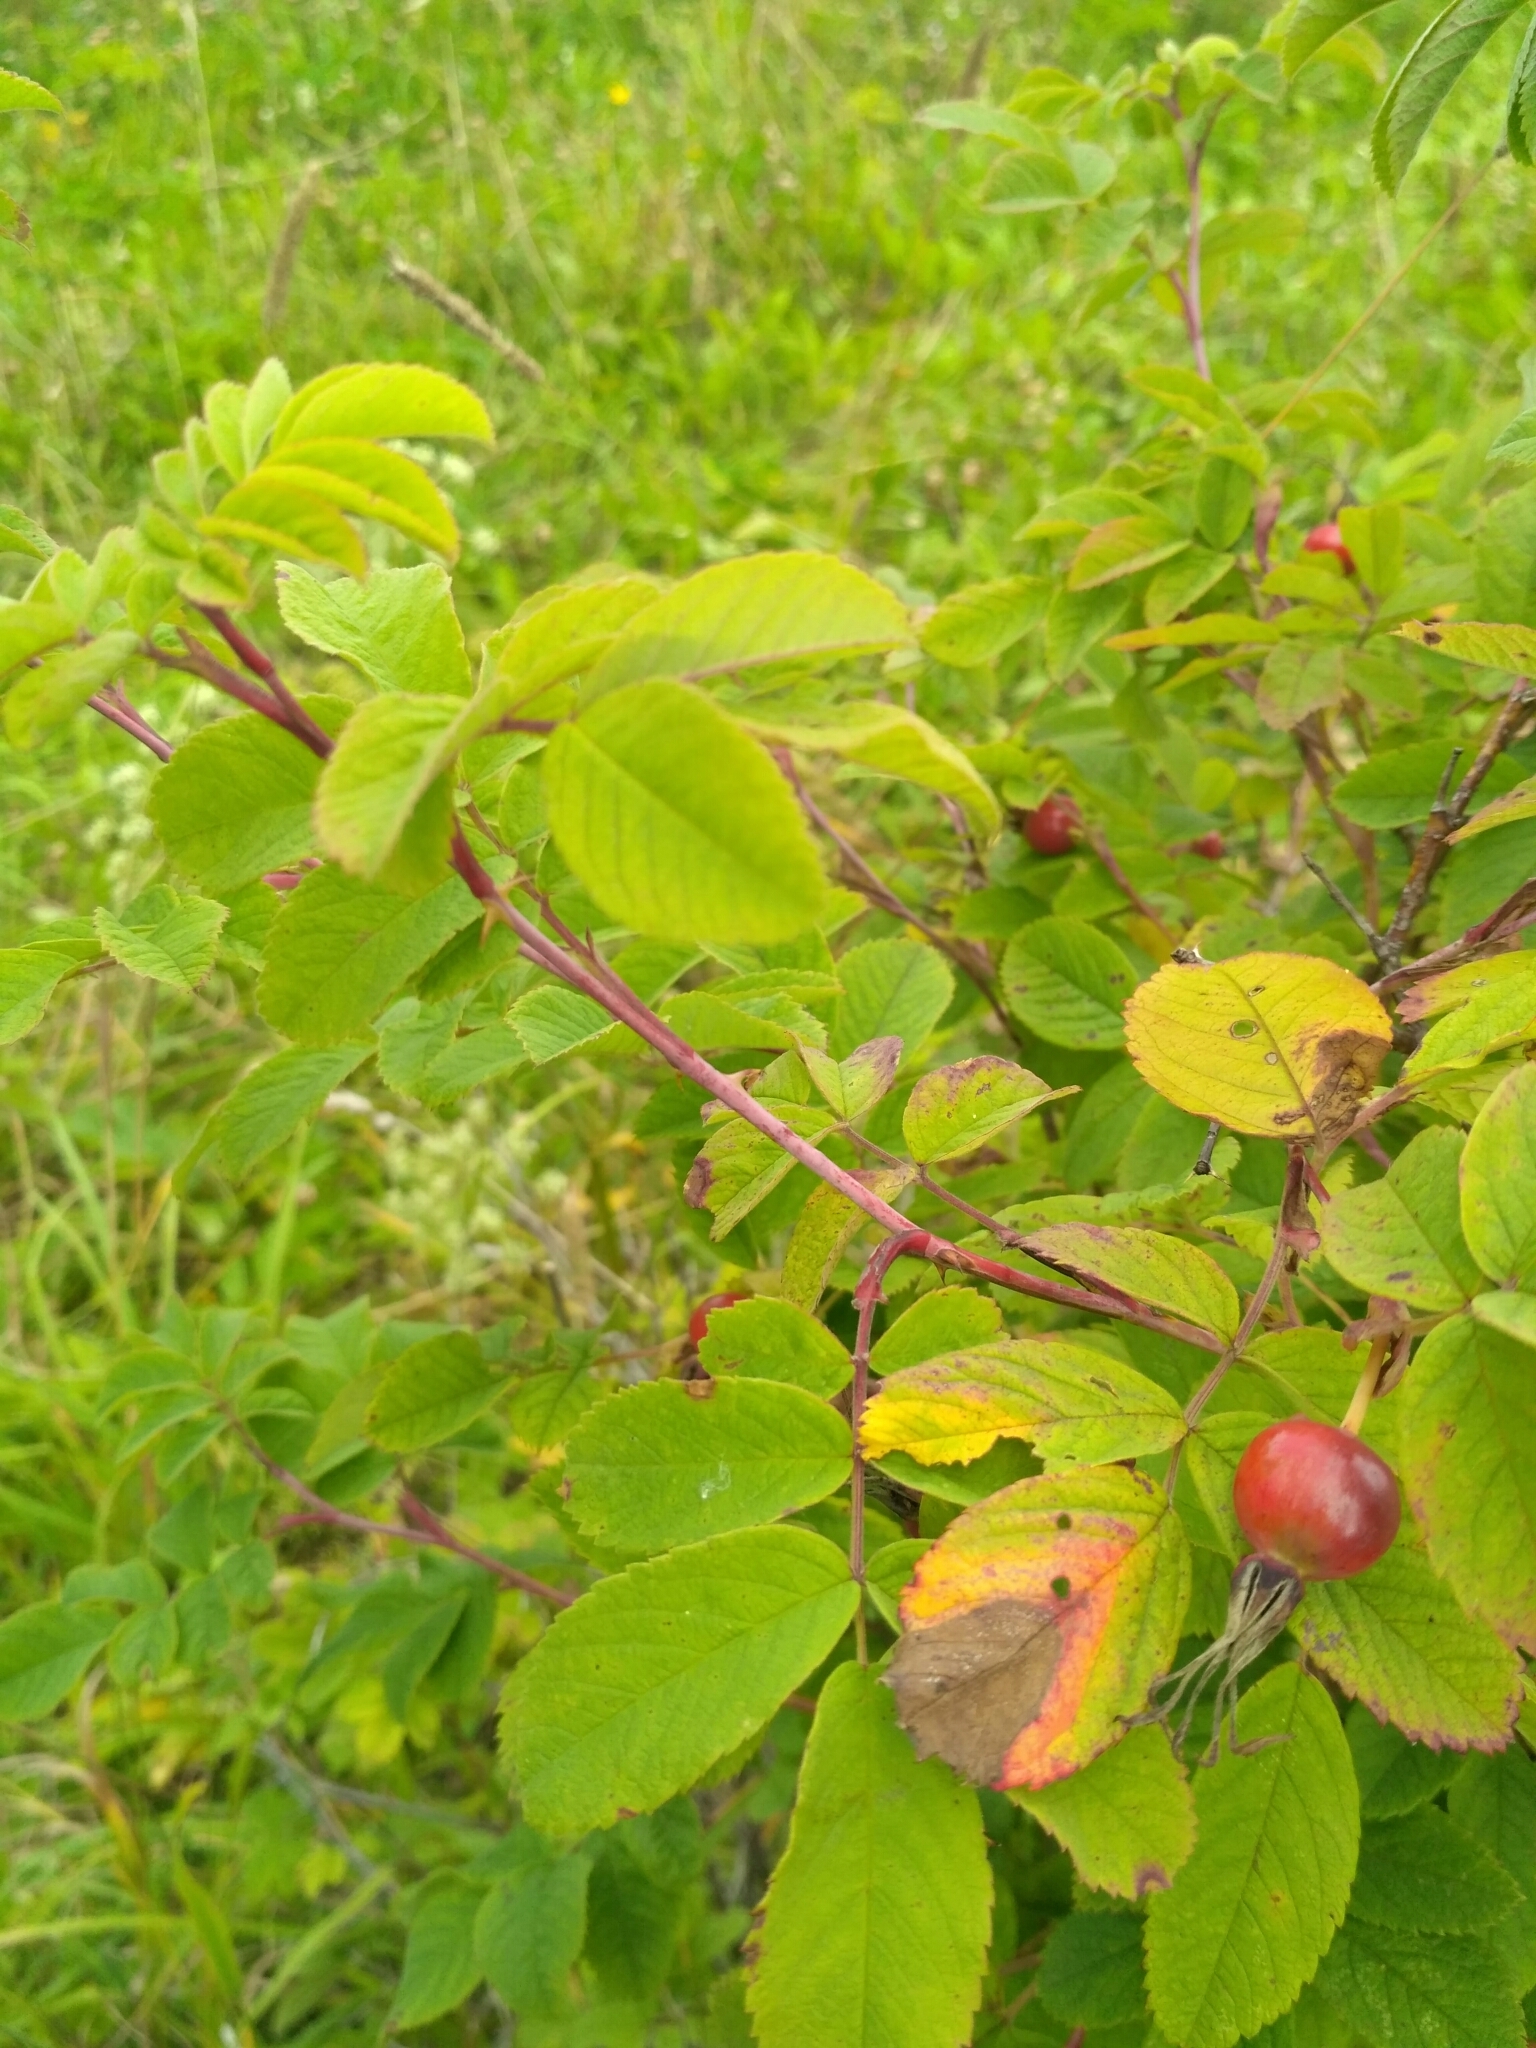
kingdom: Plantae
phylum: Tracheophyta
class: Magnoliopsida
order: Rosales
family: Rosaceae
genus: Rosa
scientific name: Rosa majalis
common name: Cinnamon rose
